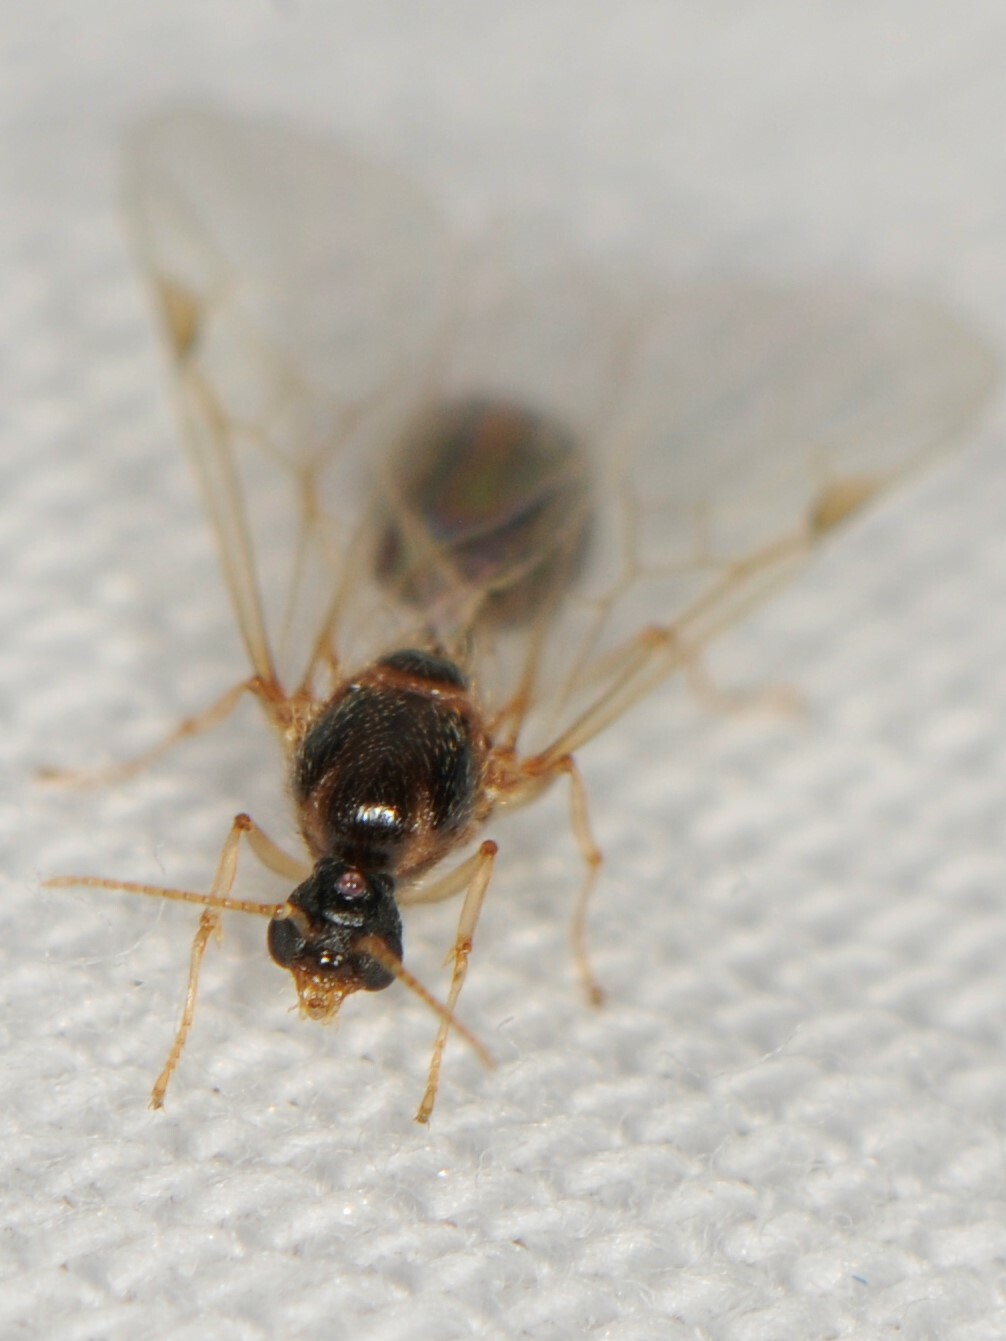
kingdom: Animalia
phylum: Arthropoda
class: Insecta
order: Hymenoptera
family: Formicidae
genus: Myrmicinae
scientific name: Myrmicinae
